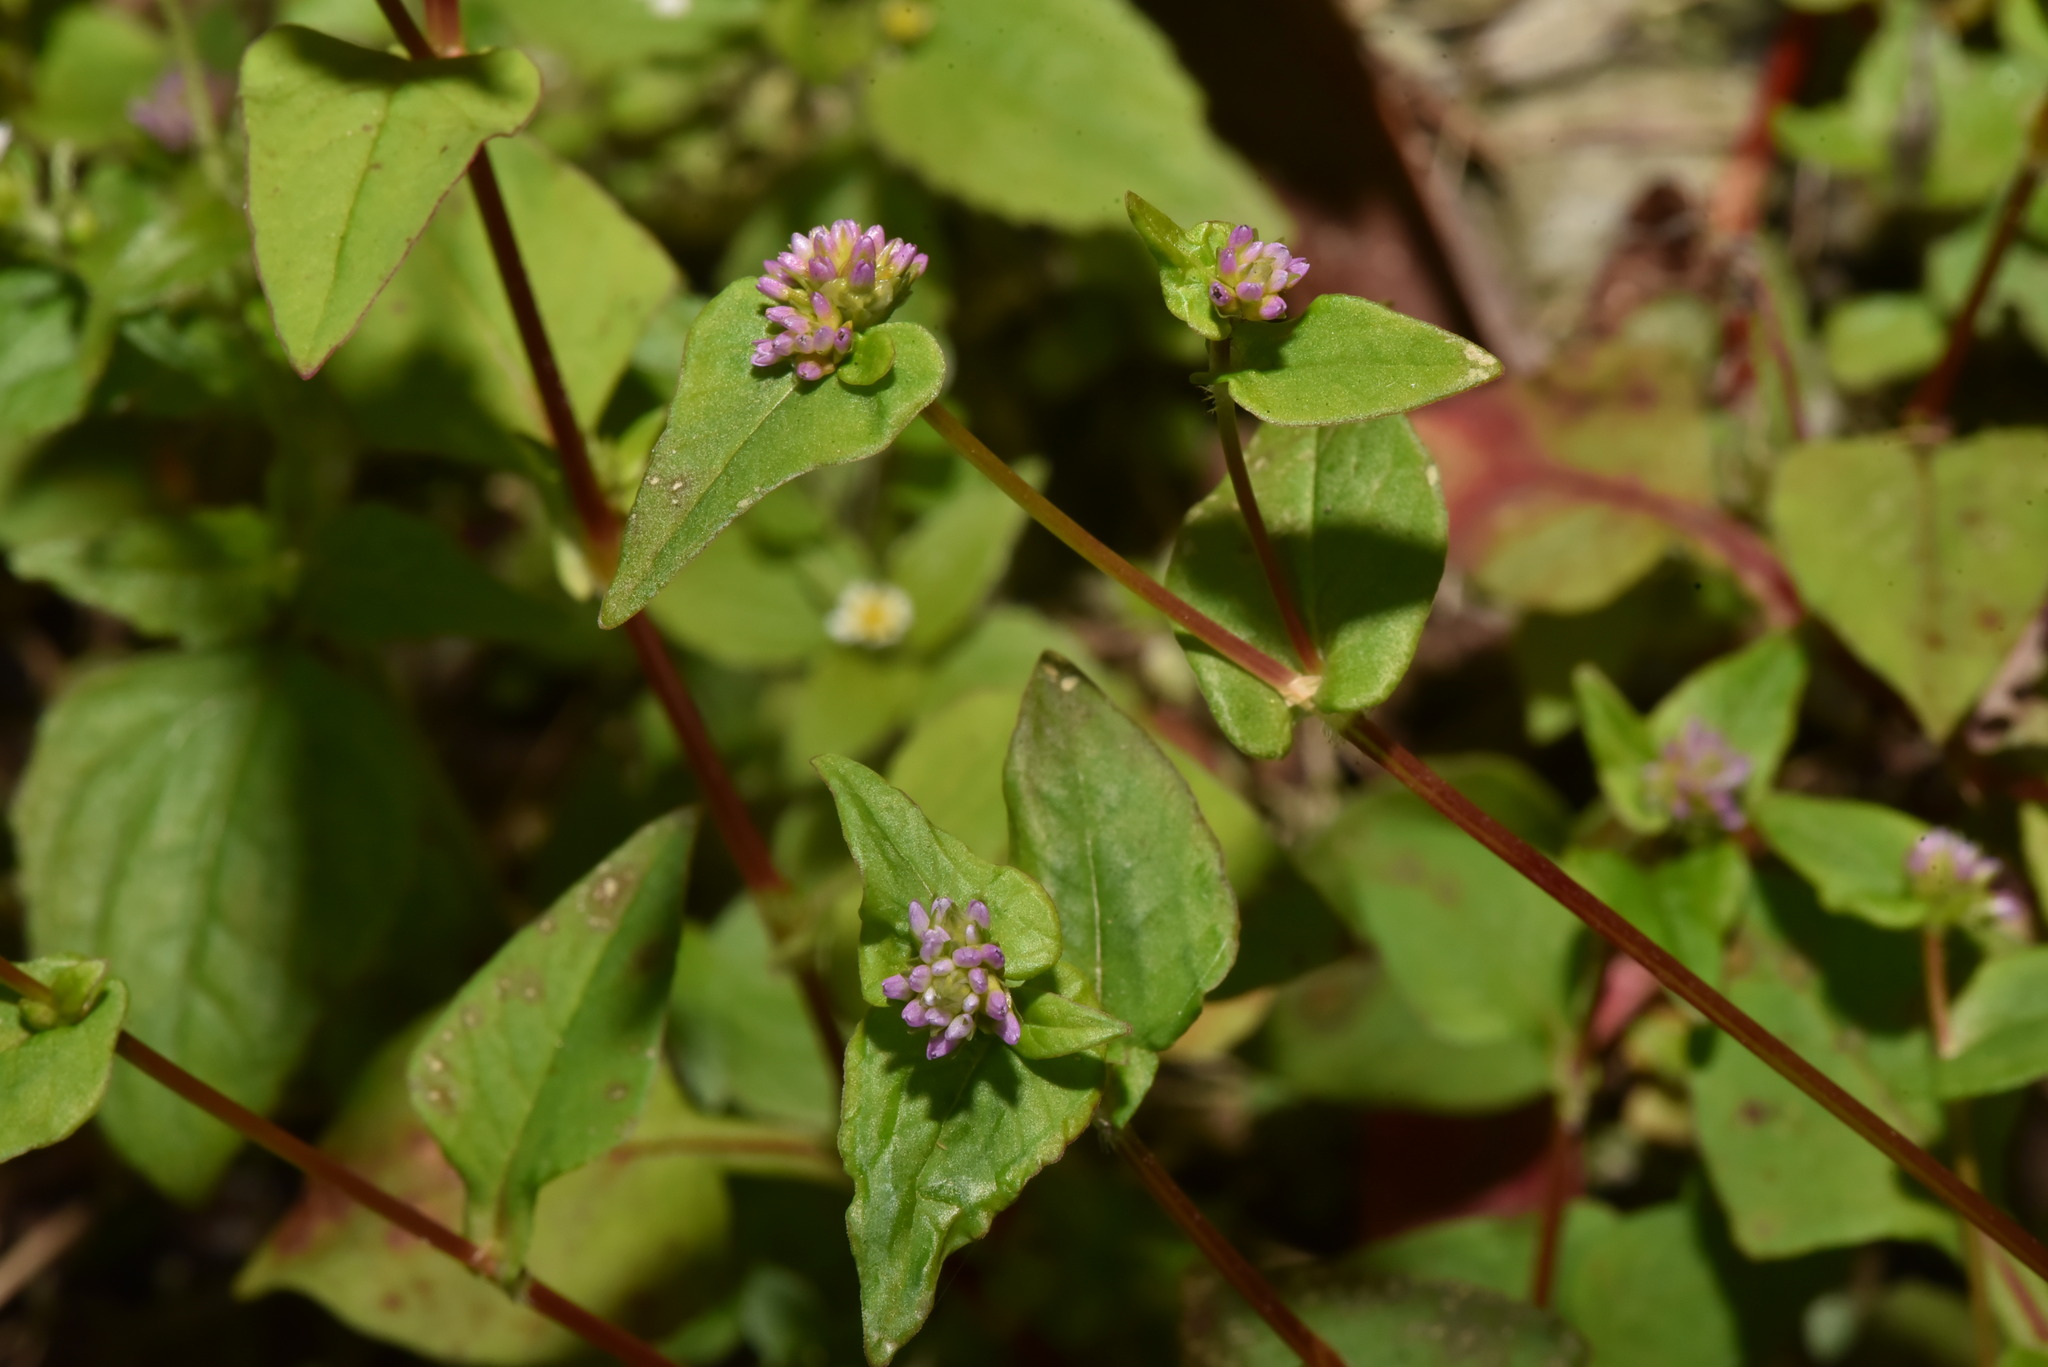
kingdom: Plantae
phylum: Tracheophyta
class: Magnoliopsida
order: Caryophyllales
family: Polygonaceae
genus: Persicaria
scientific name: Persicaria nepalensis
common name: Nepal persicaria
